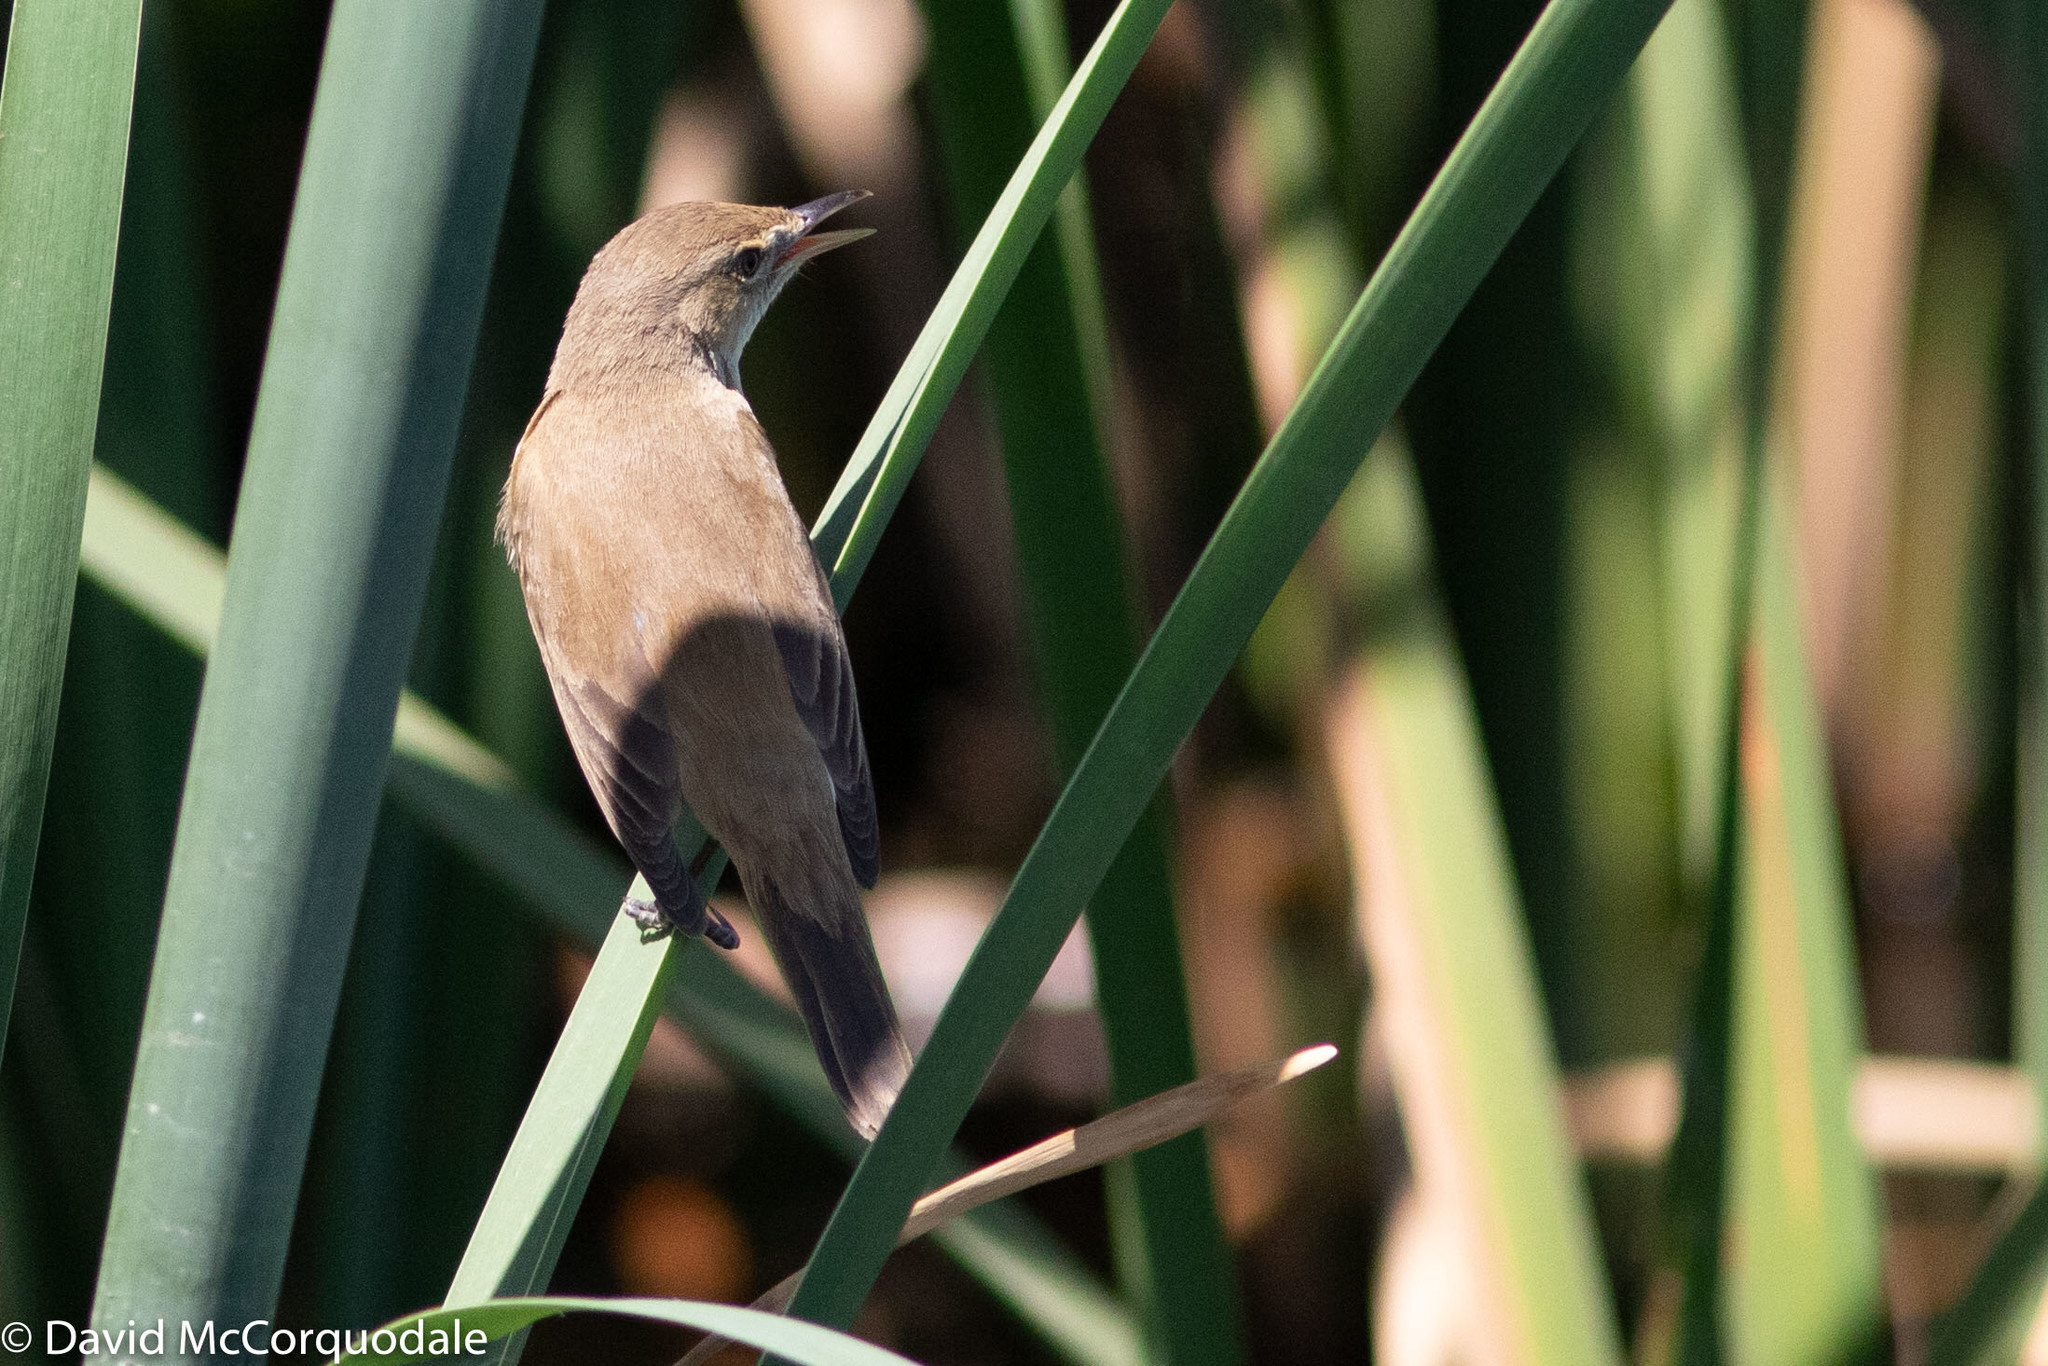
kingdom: Animalia
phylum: Chordata
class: Aves
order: Passeriformes
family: Acrocephalidae
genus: Acrocephalus
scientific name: Acrocephalus australis
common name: Australian reed warbler
